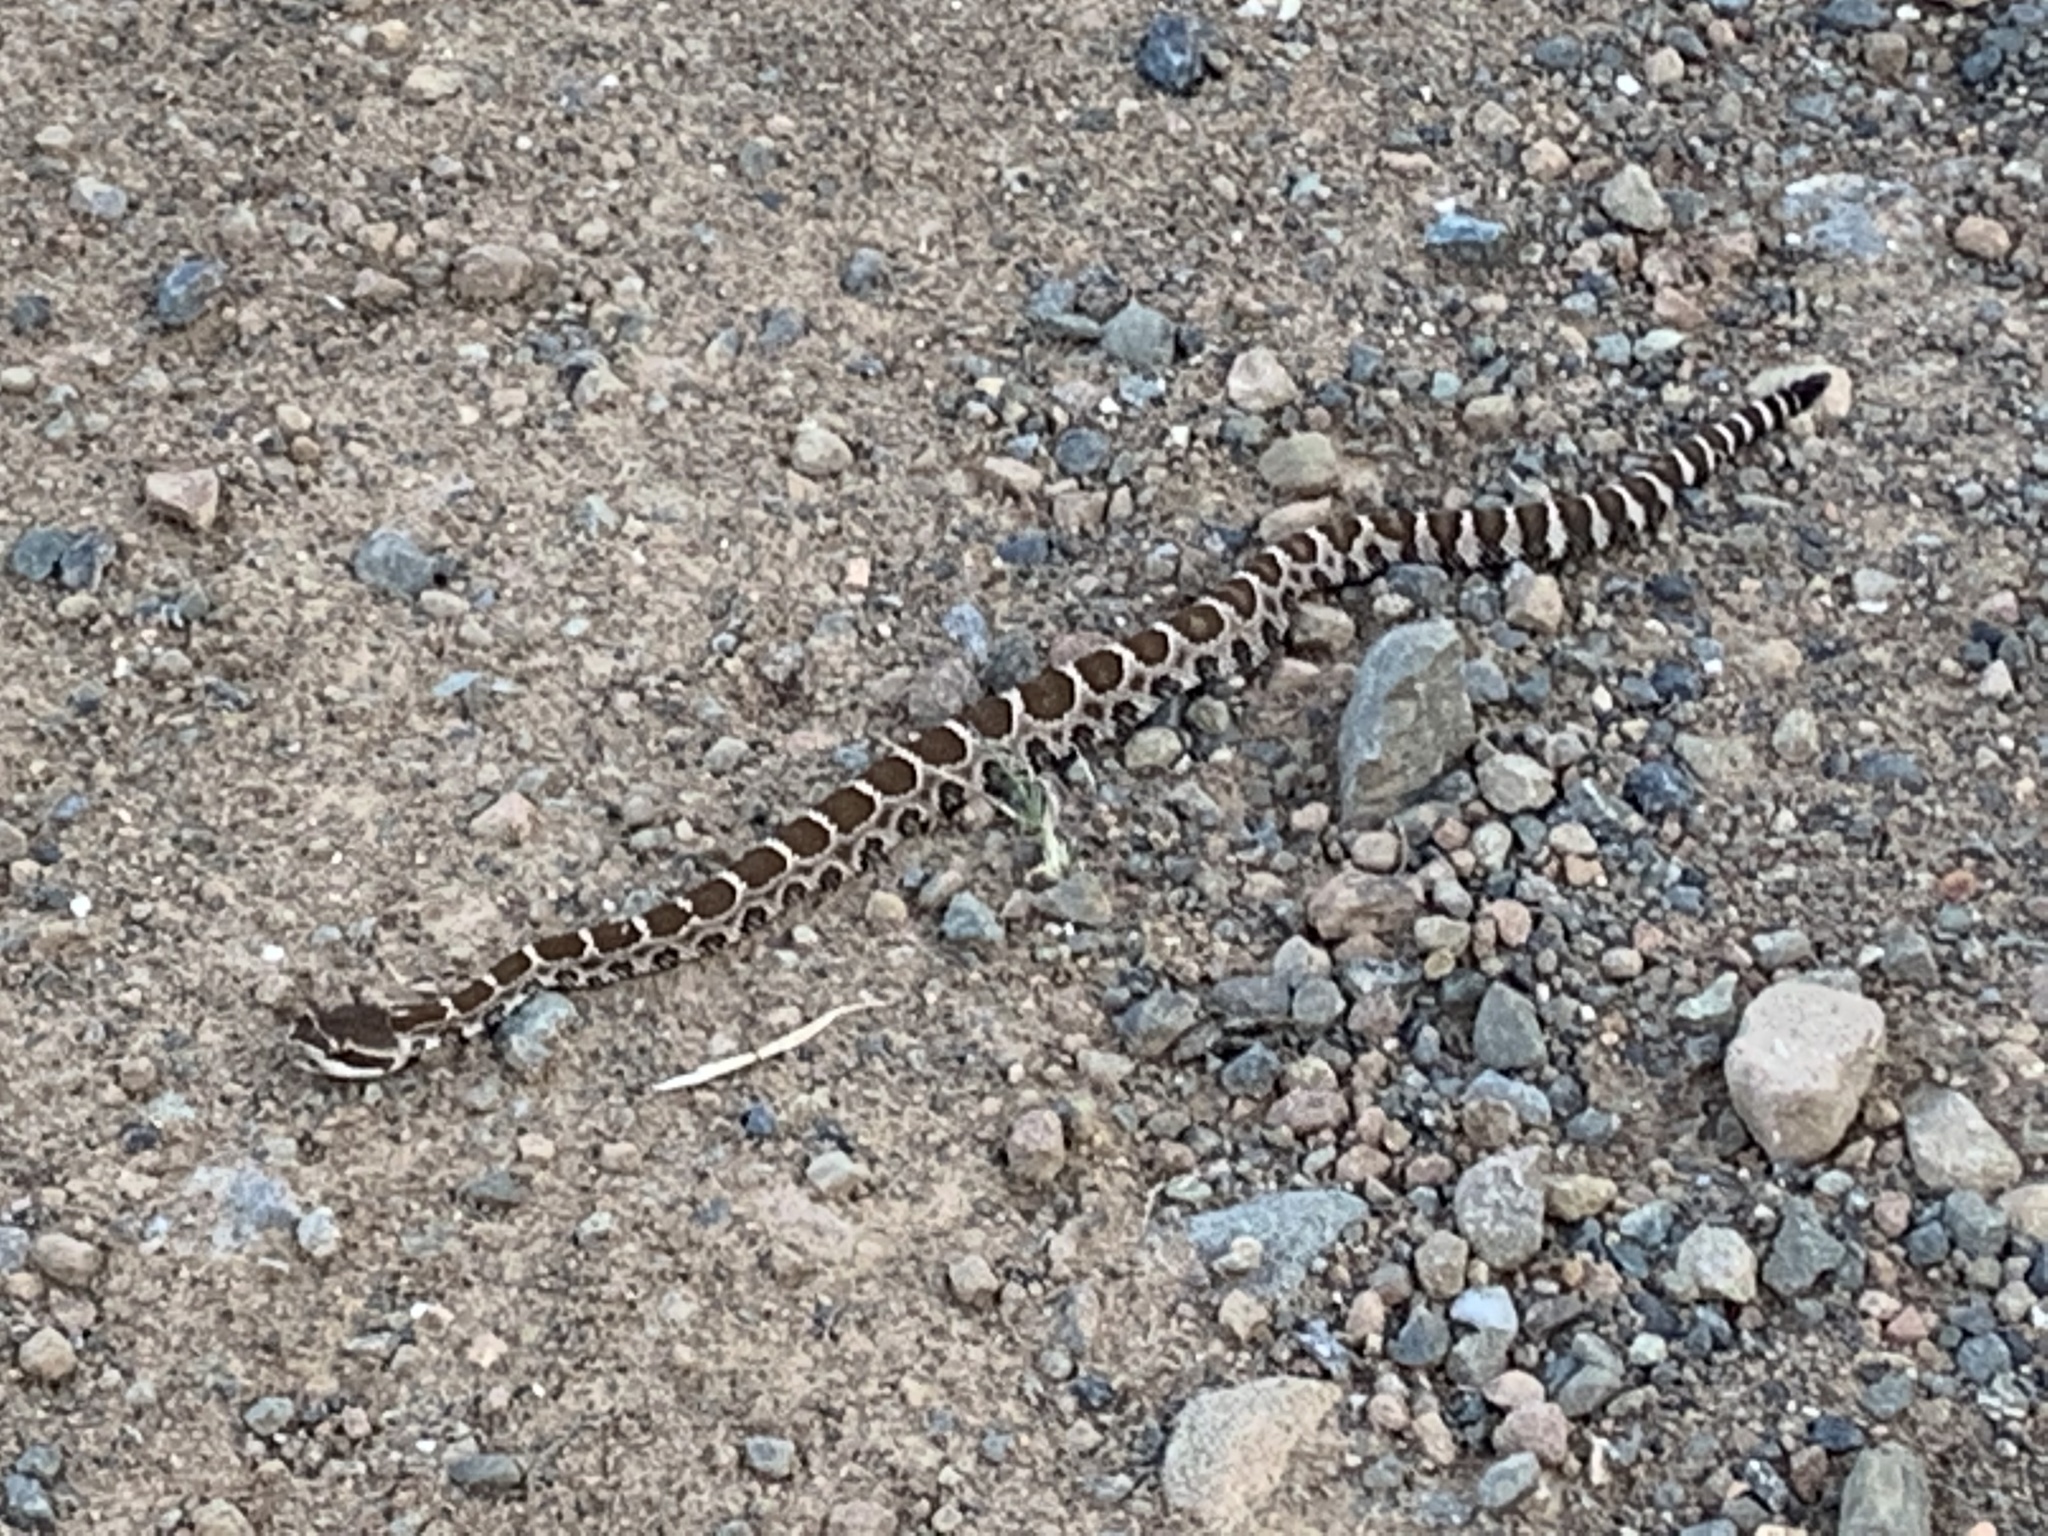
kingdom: Animalia
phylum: Chordata
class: Squamata
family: Viperidae
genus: Crotalus
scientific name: Crotalus oreganus
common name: Abyssus
